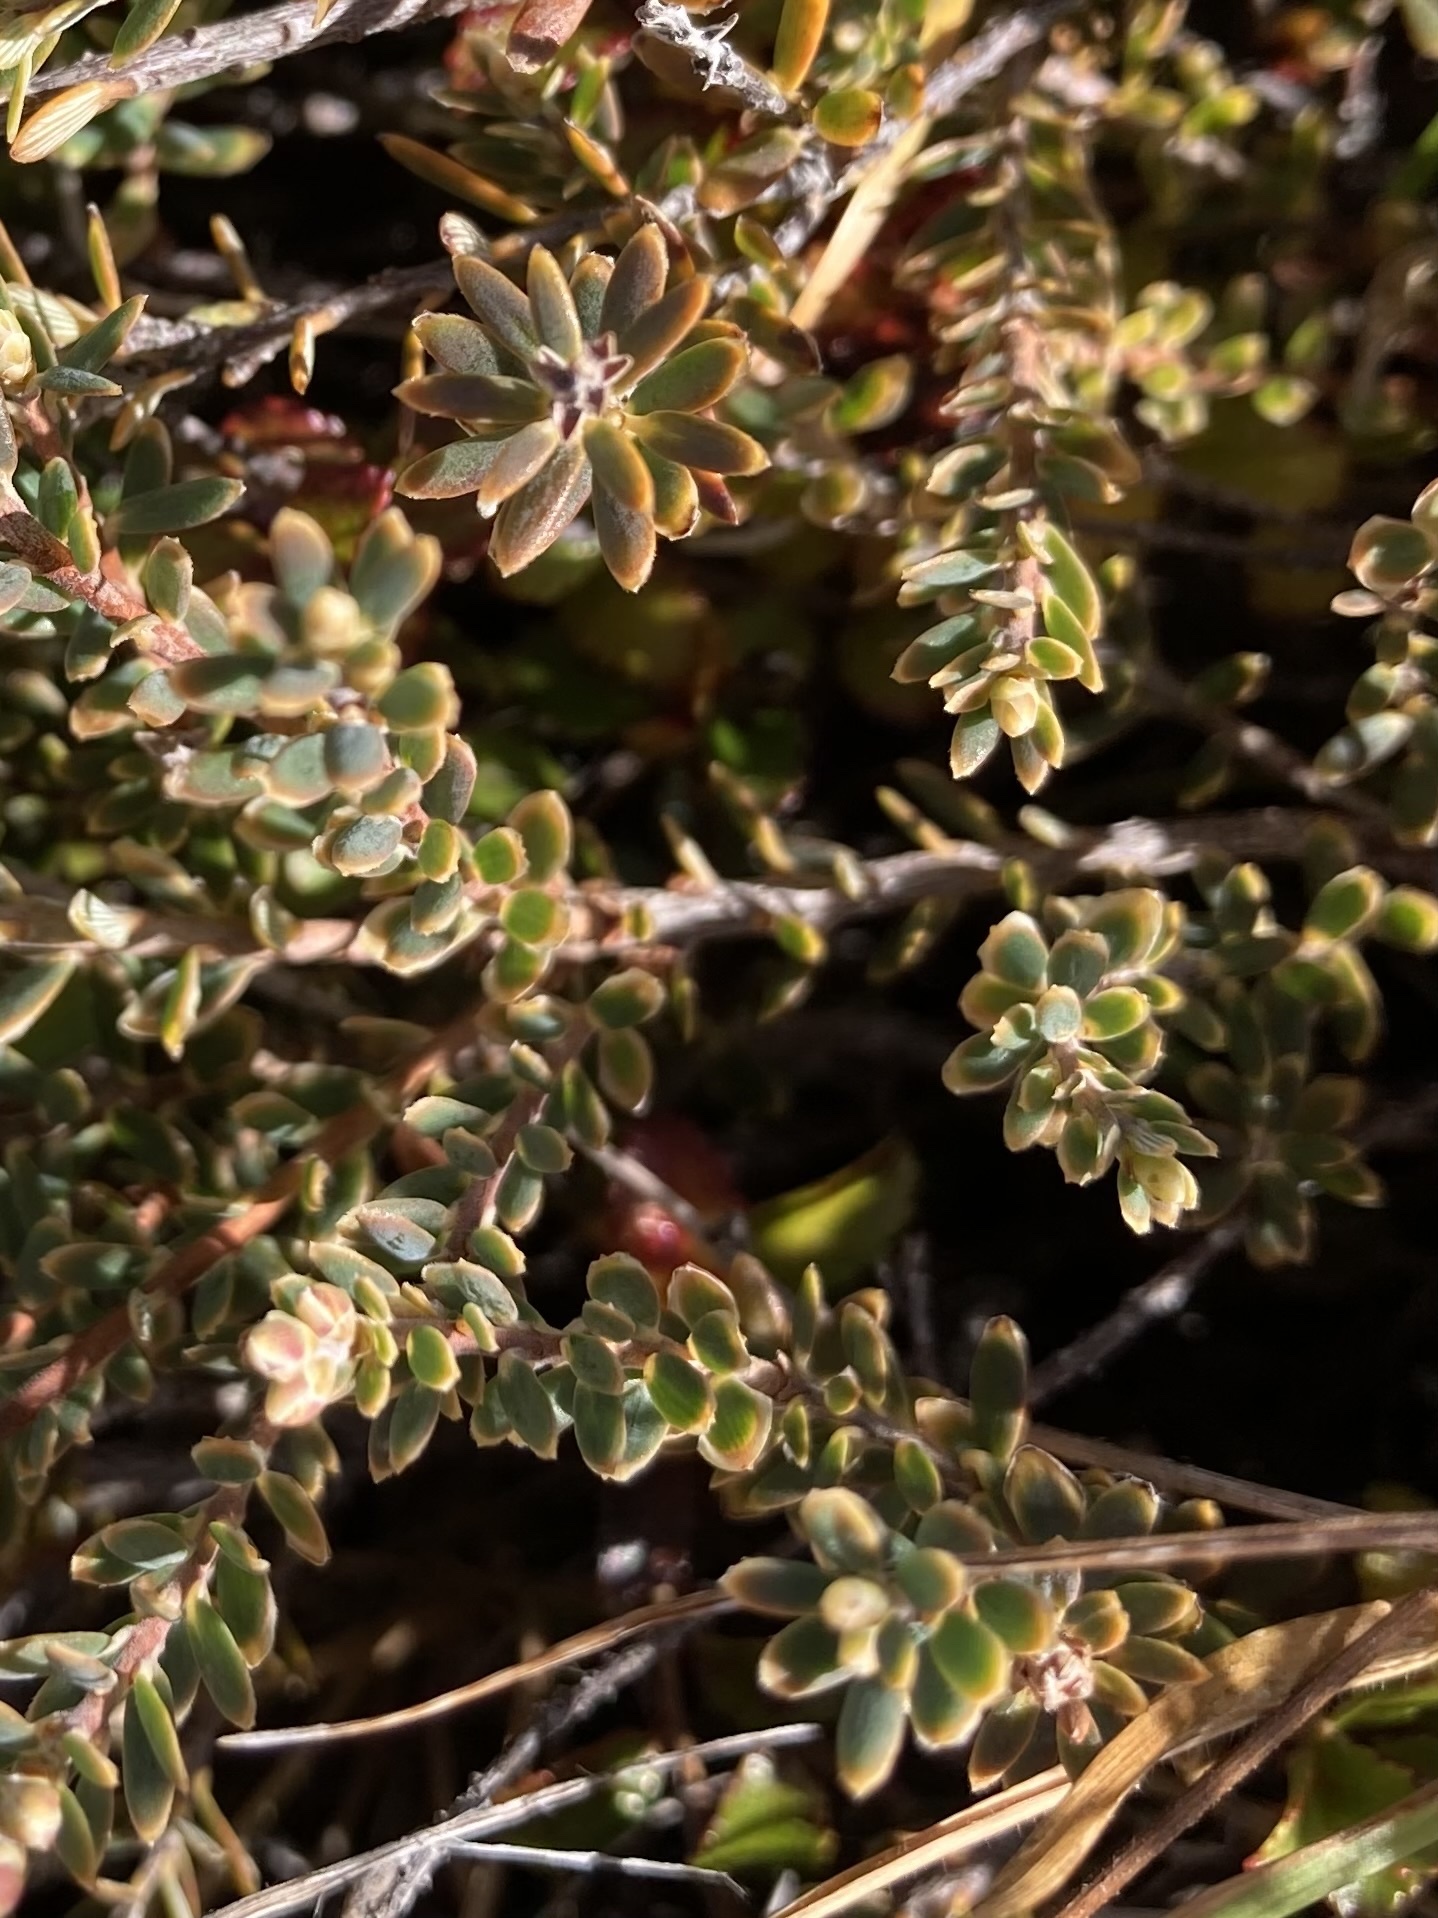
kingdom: Plantae
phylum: Tracheophyta
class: Magnoliopsida
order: Ericales
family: Ericaceae
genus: Acrothamnus
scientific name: Acrothamnus colensoi
